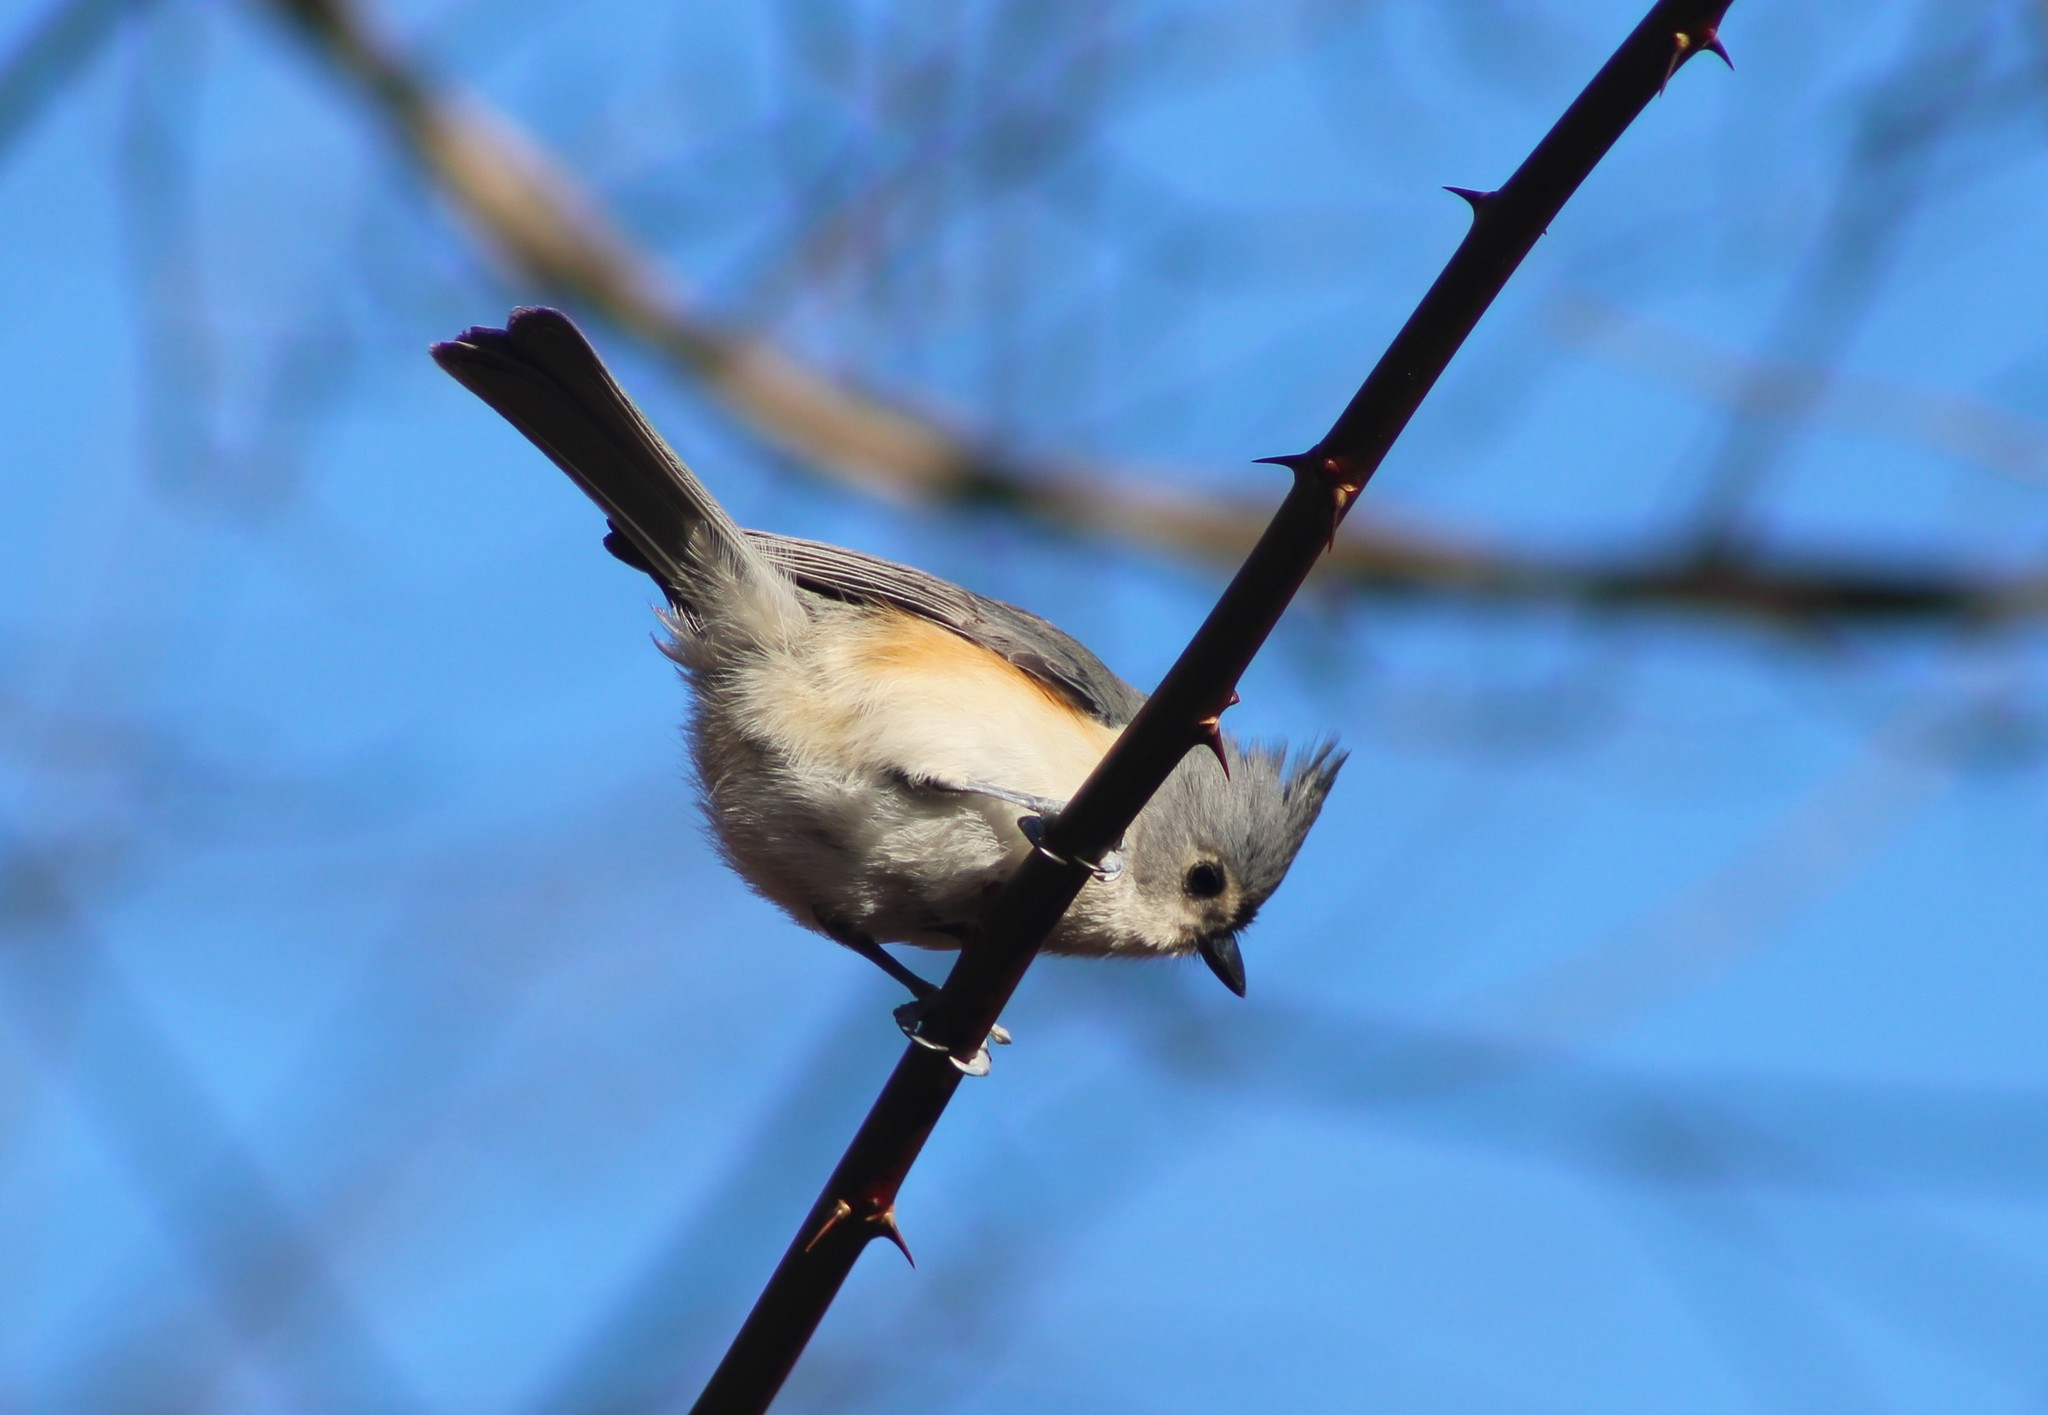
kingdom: Animalia
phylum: Chordata
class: Aves
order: Passeriformes
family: Paridae
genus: Baeolophus
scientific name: Baeolophus bicolor
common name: Tufted titmouse
